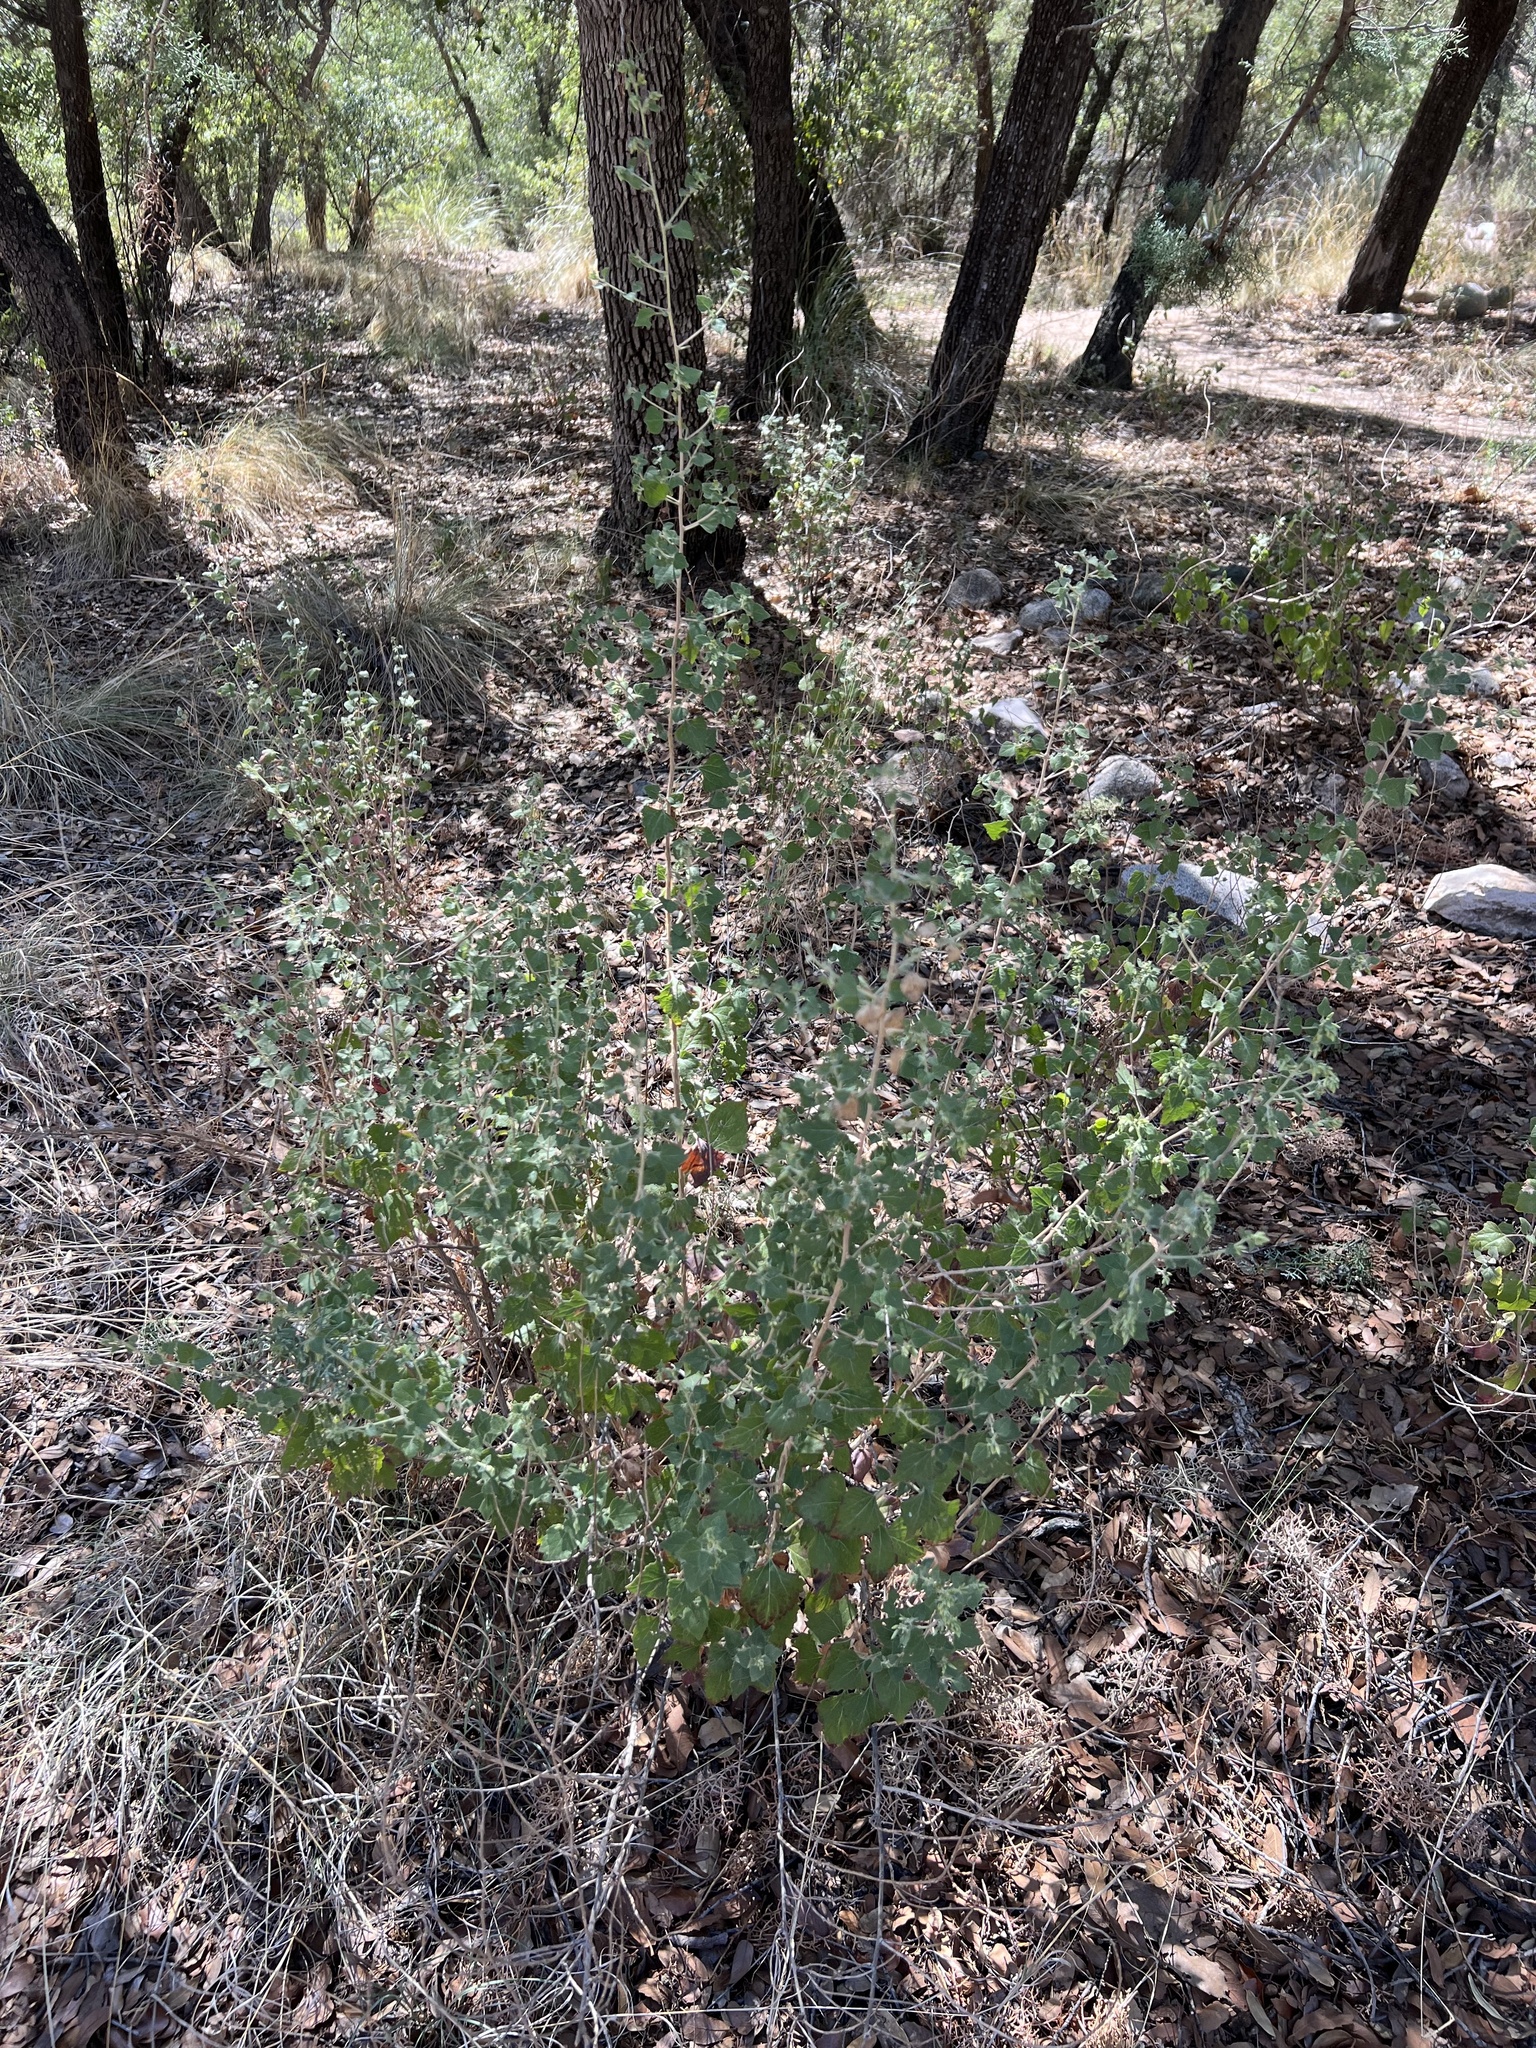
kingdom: Plantae
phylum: Tracheophyta
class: Magnoliopsida
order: Asterales
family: Asteraceae
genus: Brickellia
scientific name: Brickellia californica
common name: California brickellbush
